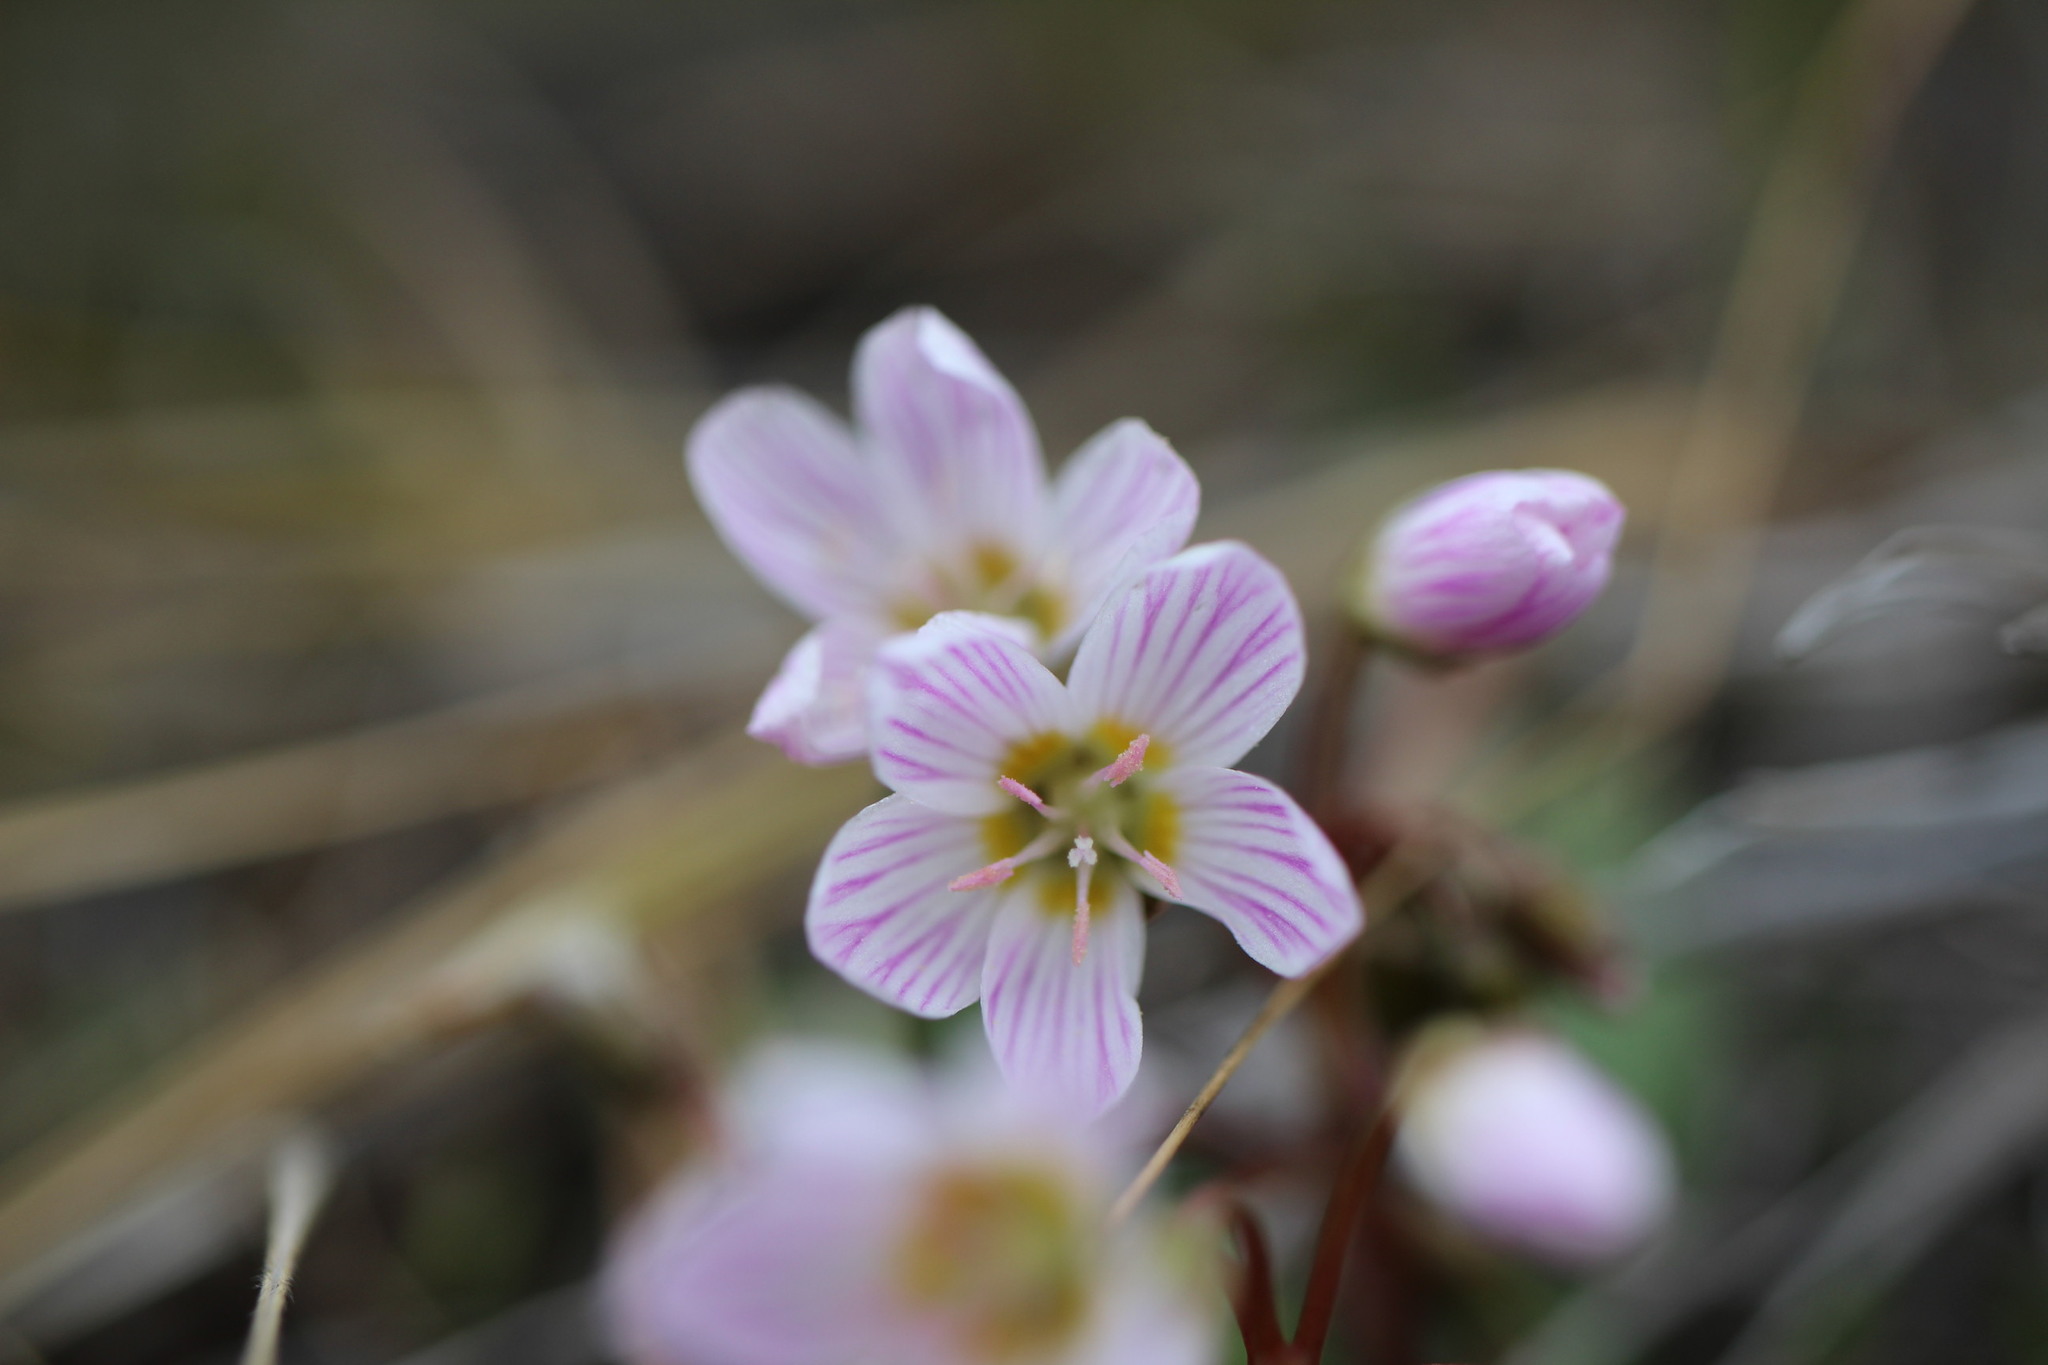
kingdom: Plantae
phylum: Tracheophyta
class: Magnoliopsida
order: Caryophyllales
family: Montiaceae
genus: Claytonia
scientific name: Claytonia lanceolata
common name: Western spring-beauty
